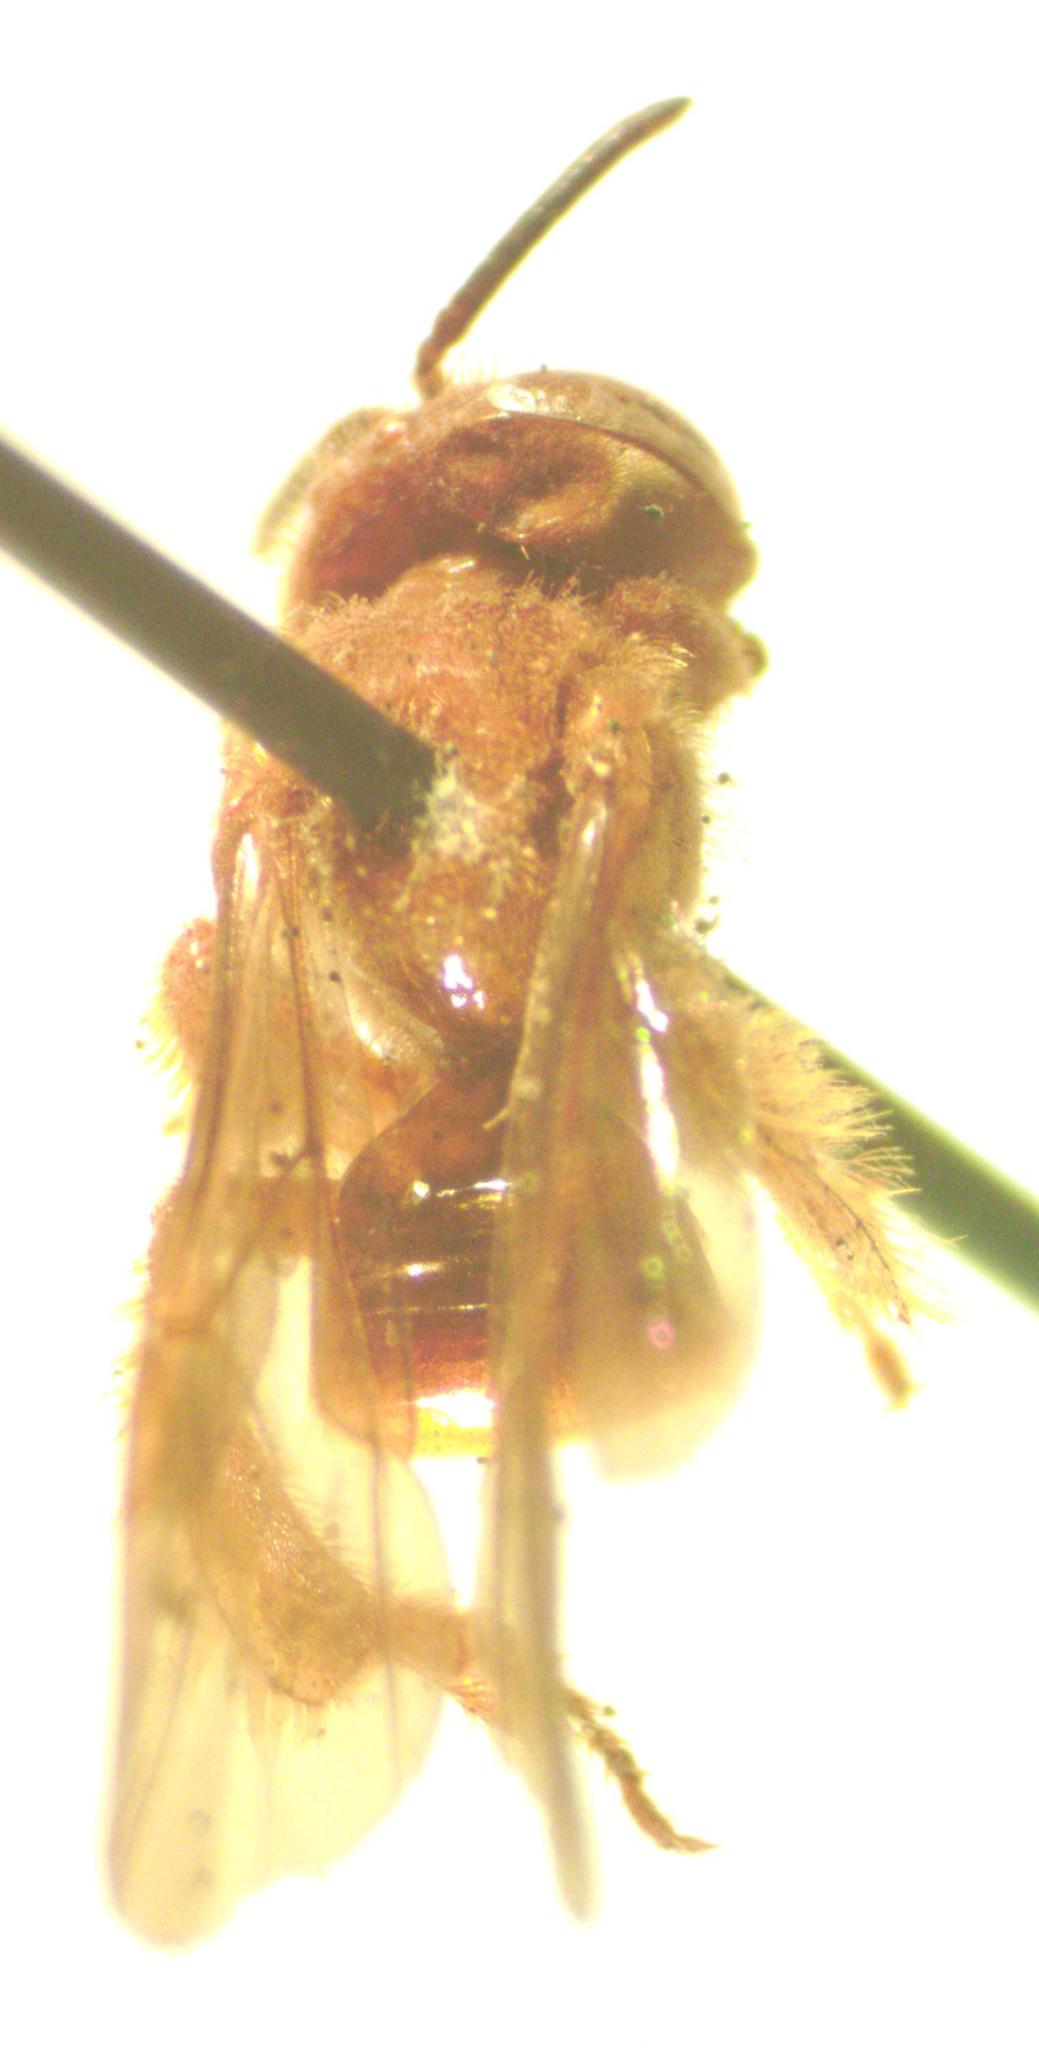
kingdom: Animalia
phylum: Arthropoda
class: Insecta
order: Hymenoptera
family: Apidae
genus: Trigona
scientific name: Trigona muzoensis
